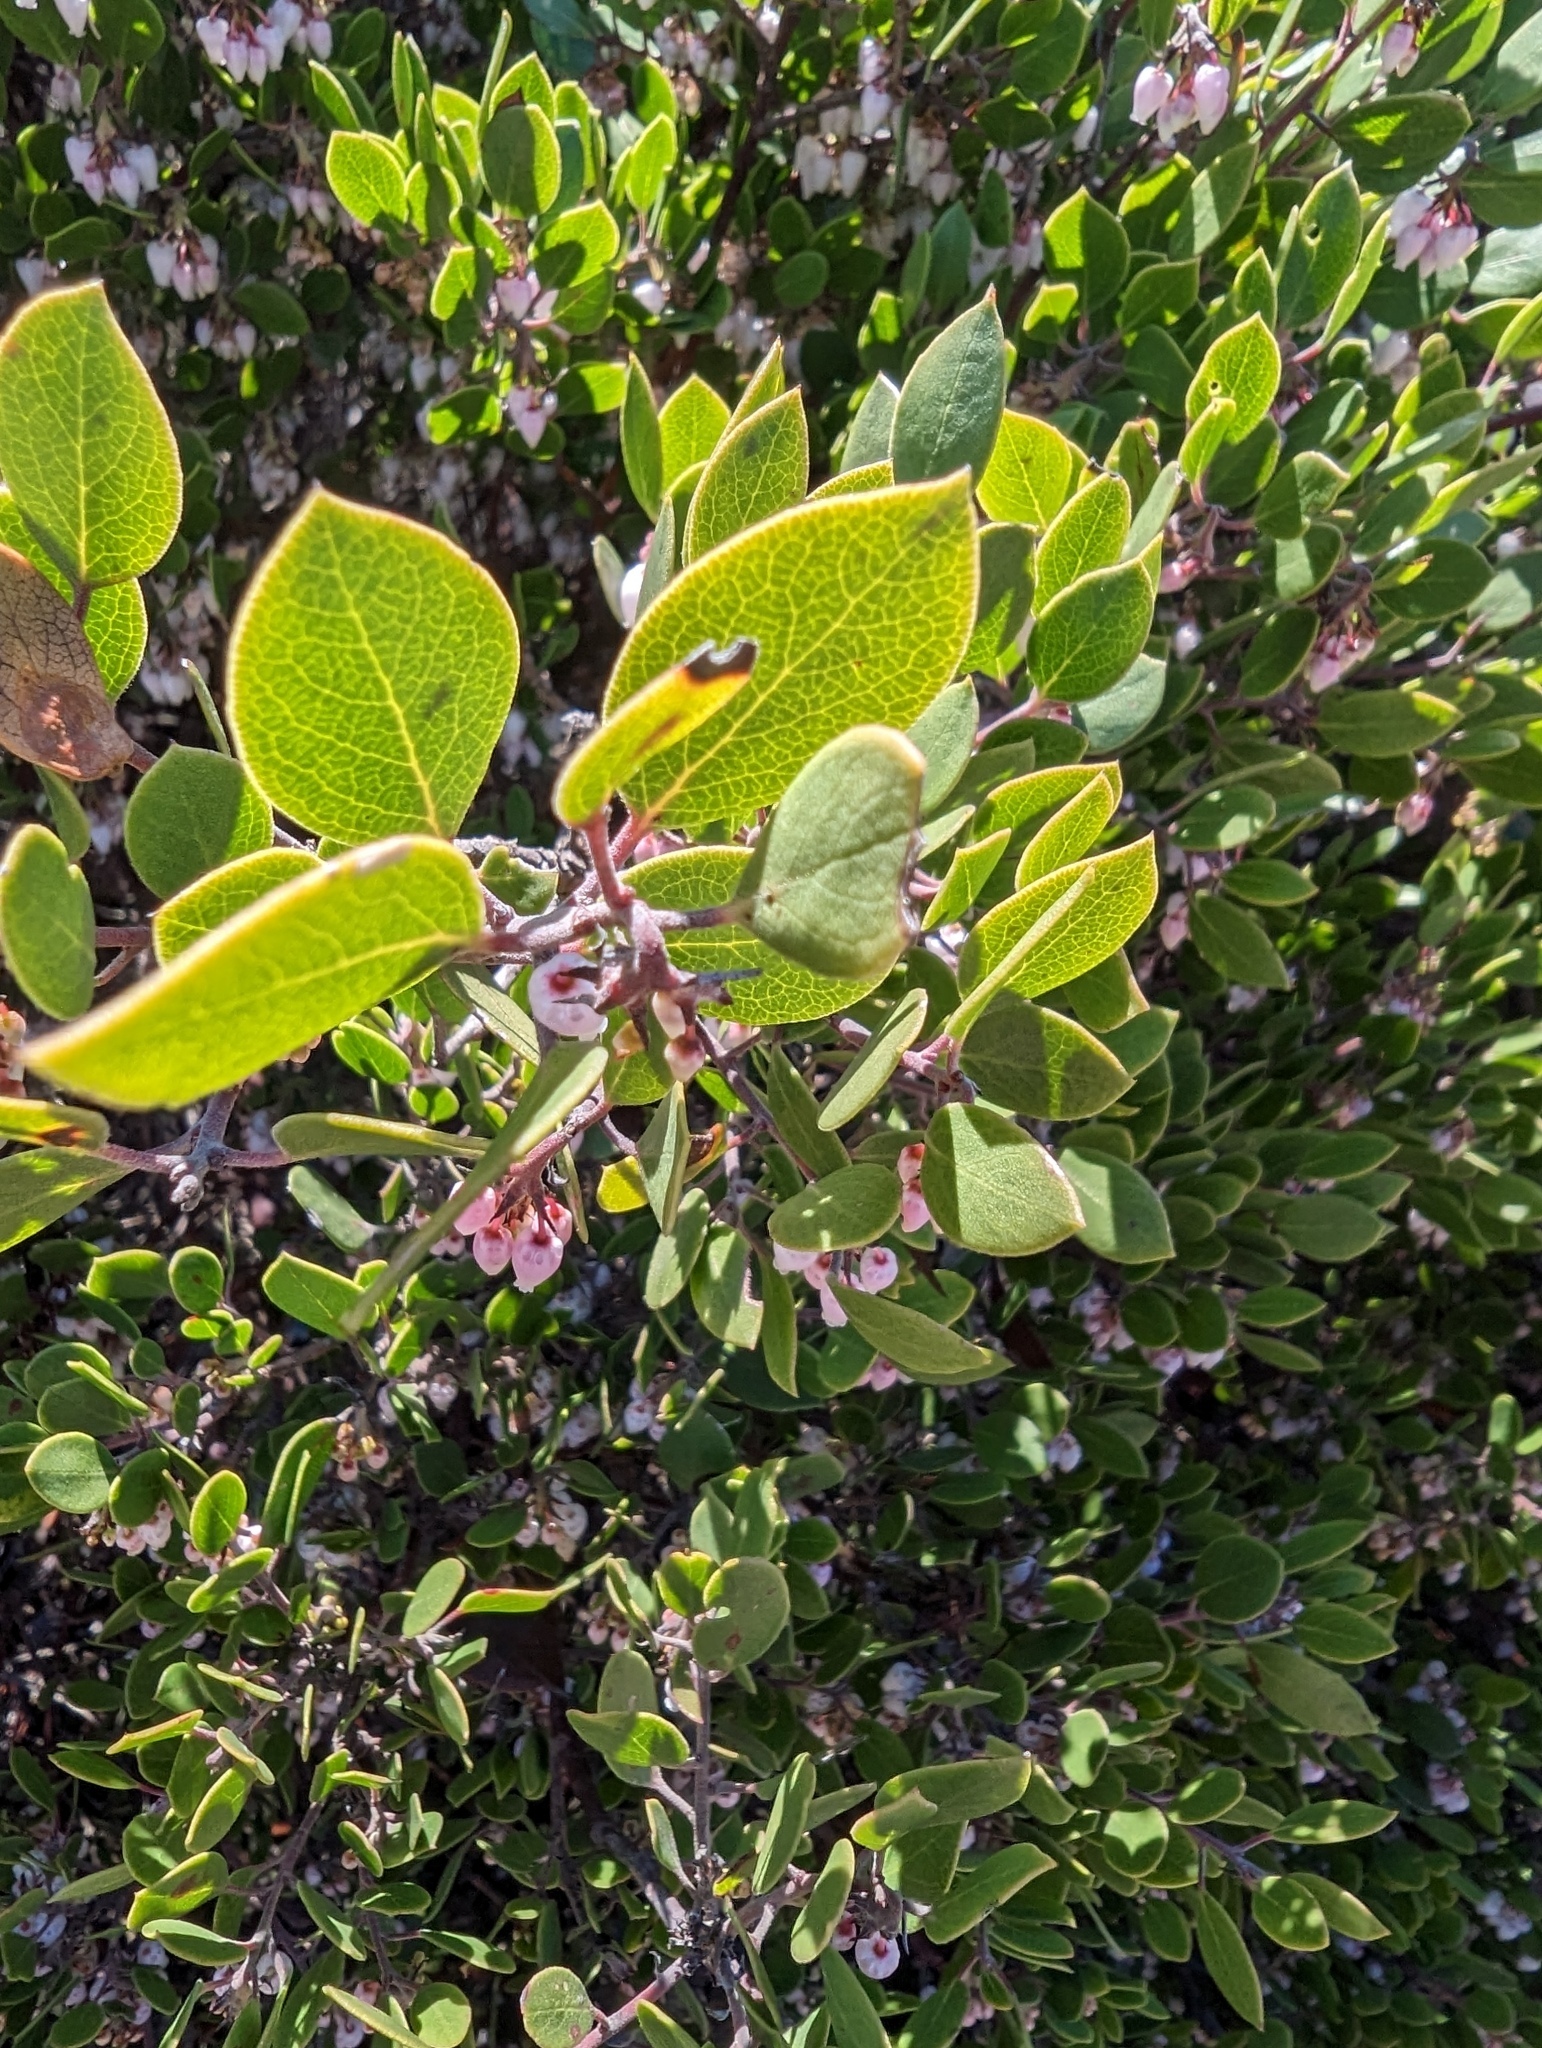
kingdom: Plantae
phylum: Tracheophyta
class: Magnoliopsida
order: Ericales
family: Ericaceae
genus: Arctostaphylos
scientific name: Arctostaphylos hookeri
